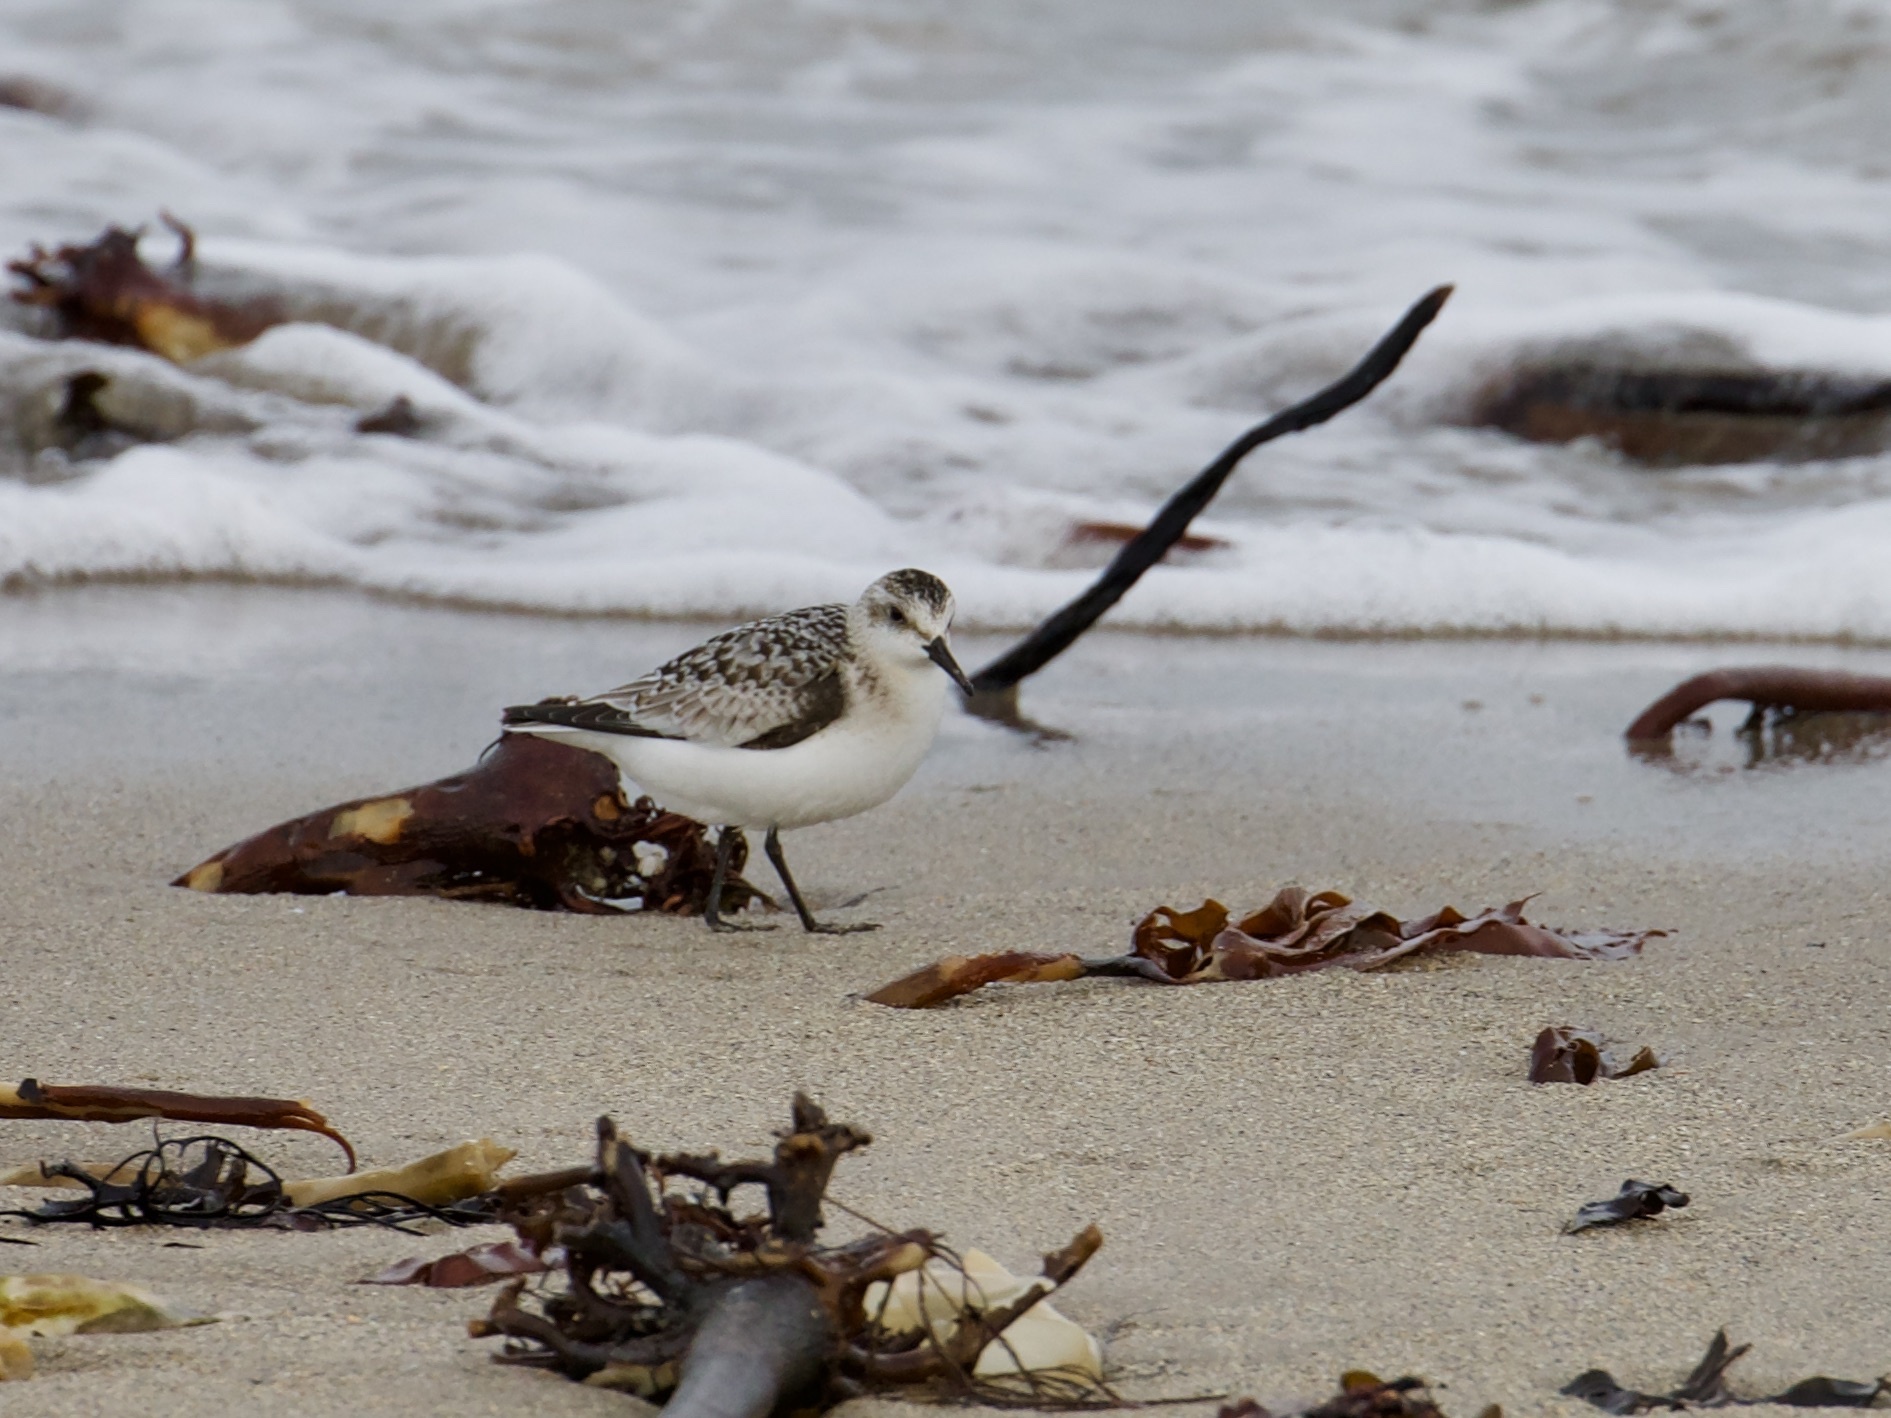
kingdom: Animalia
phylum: Chordata
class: Aves
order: Charadriiformes
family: Scolopacidae
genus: Calidris
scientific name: Calidris alba
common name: Sanderling
